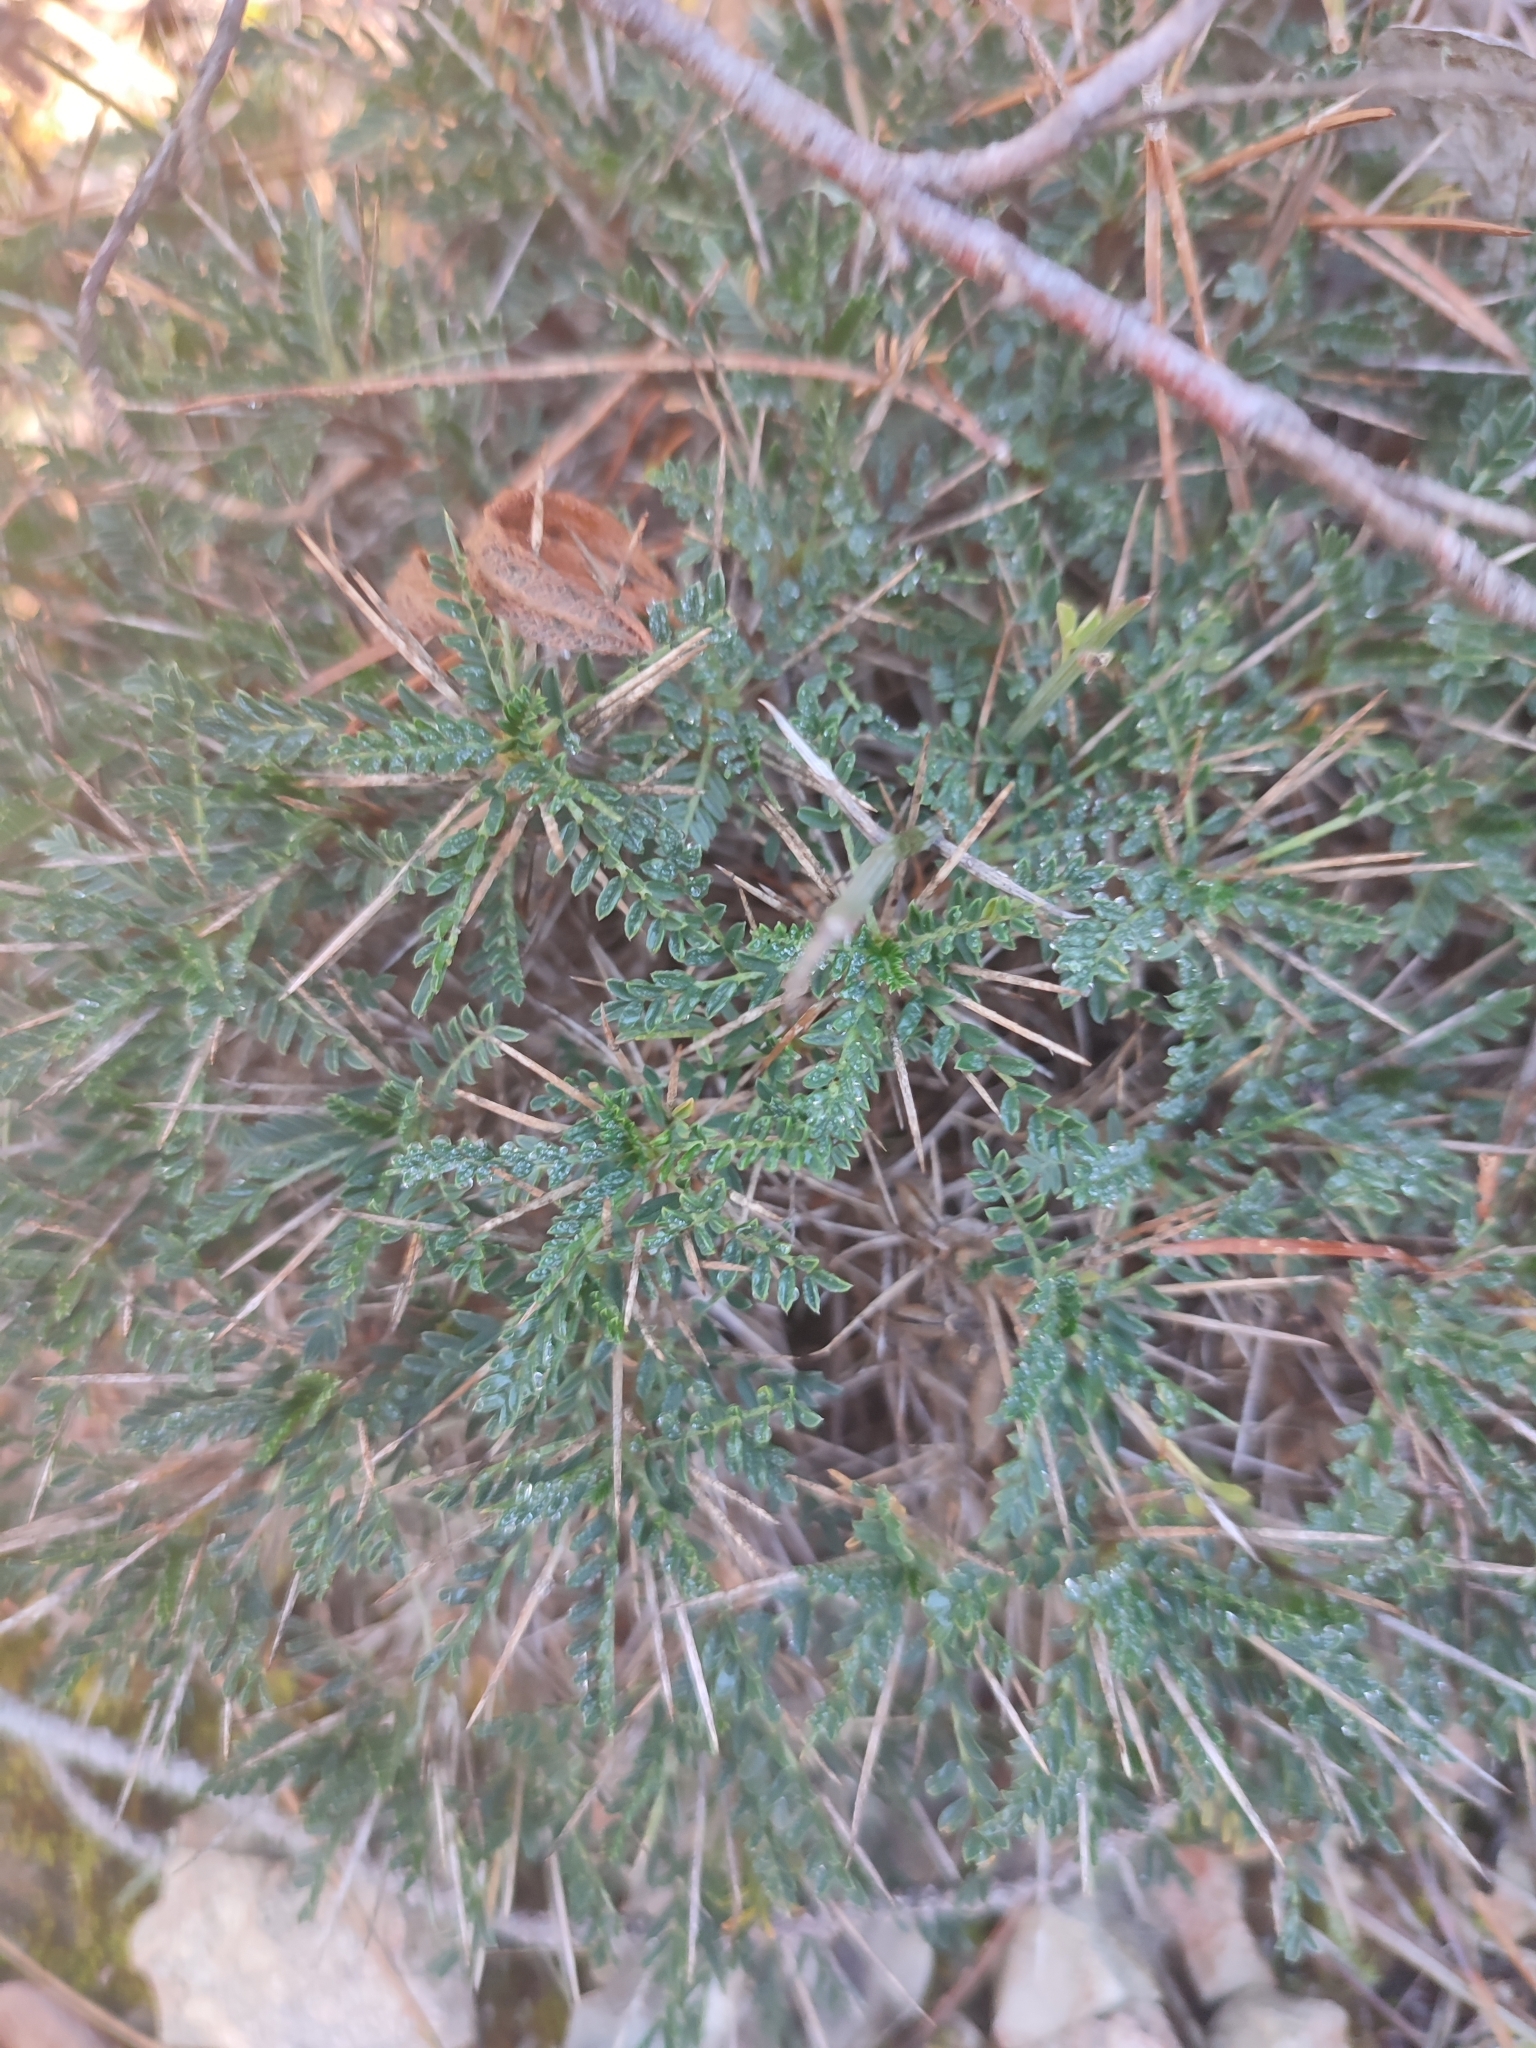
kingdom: Plantae
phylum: Tracheophyta
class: Magnoliopsida
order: Fabales
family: Fabaceae
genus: Astragalus
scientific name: Astragalus balearicus
